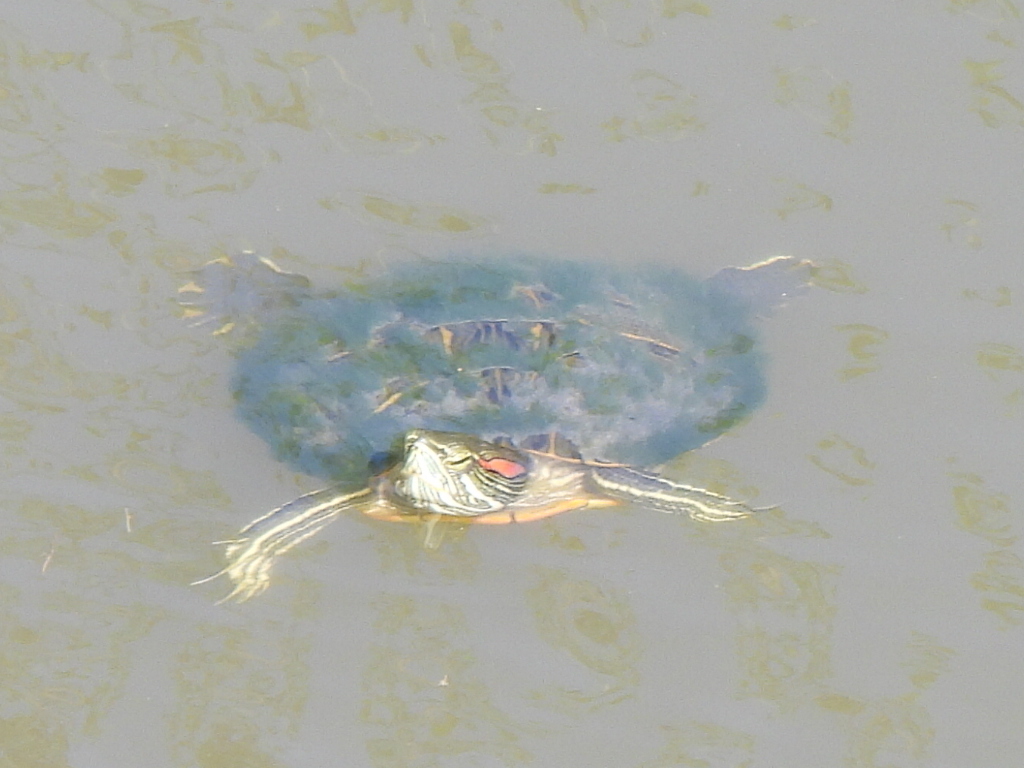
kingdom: Animalia
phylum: Chordata
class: Testudines
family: Emydidae
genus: Trachemys
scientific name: Trachemys scripta
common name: Slider
